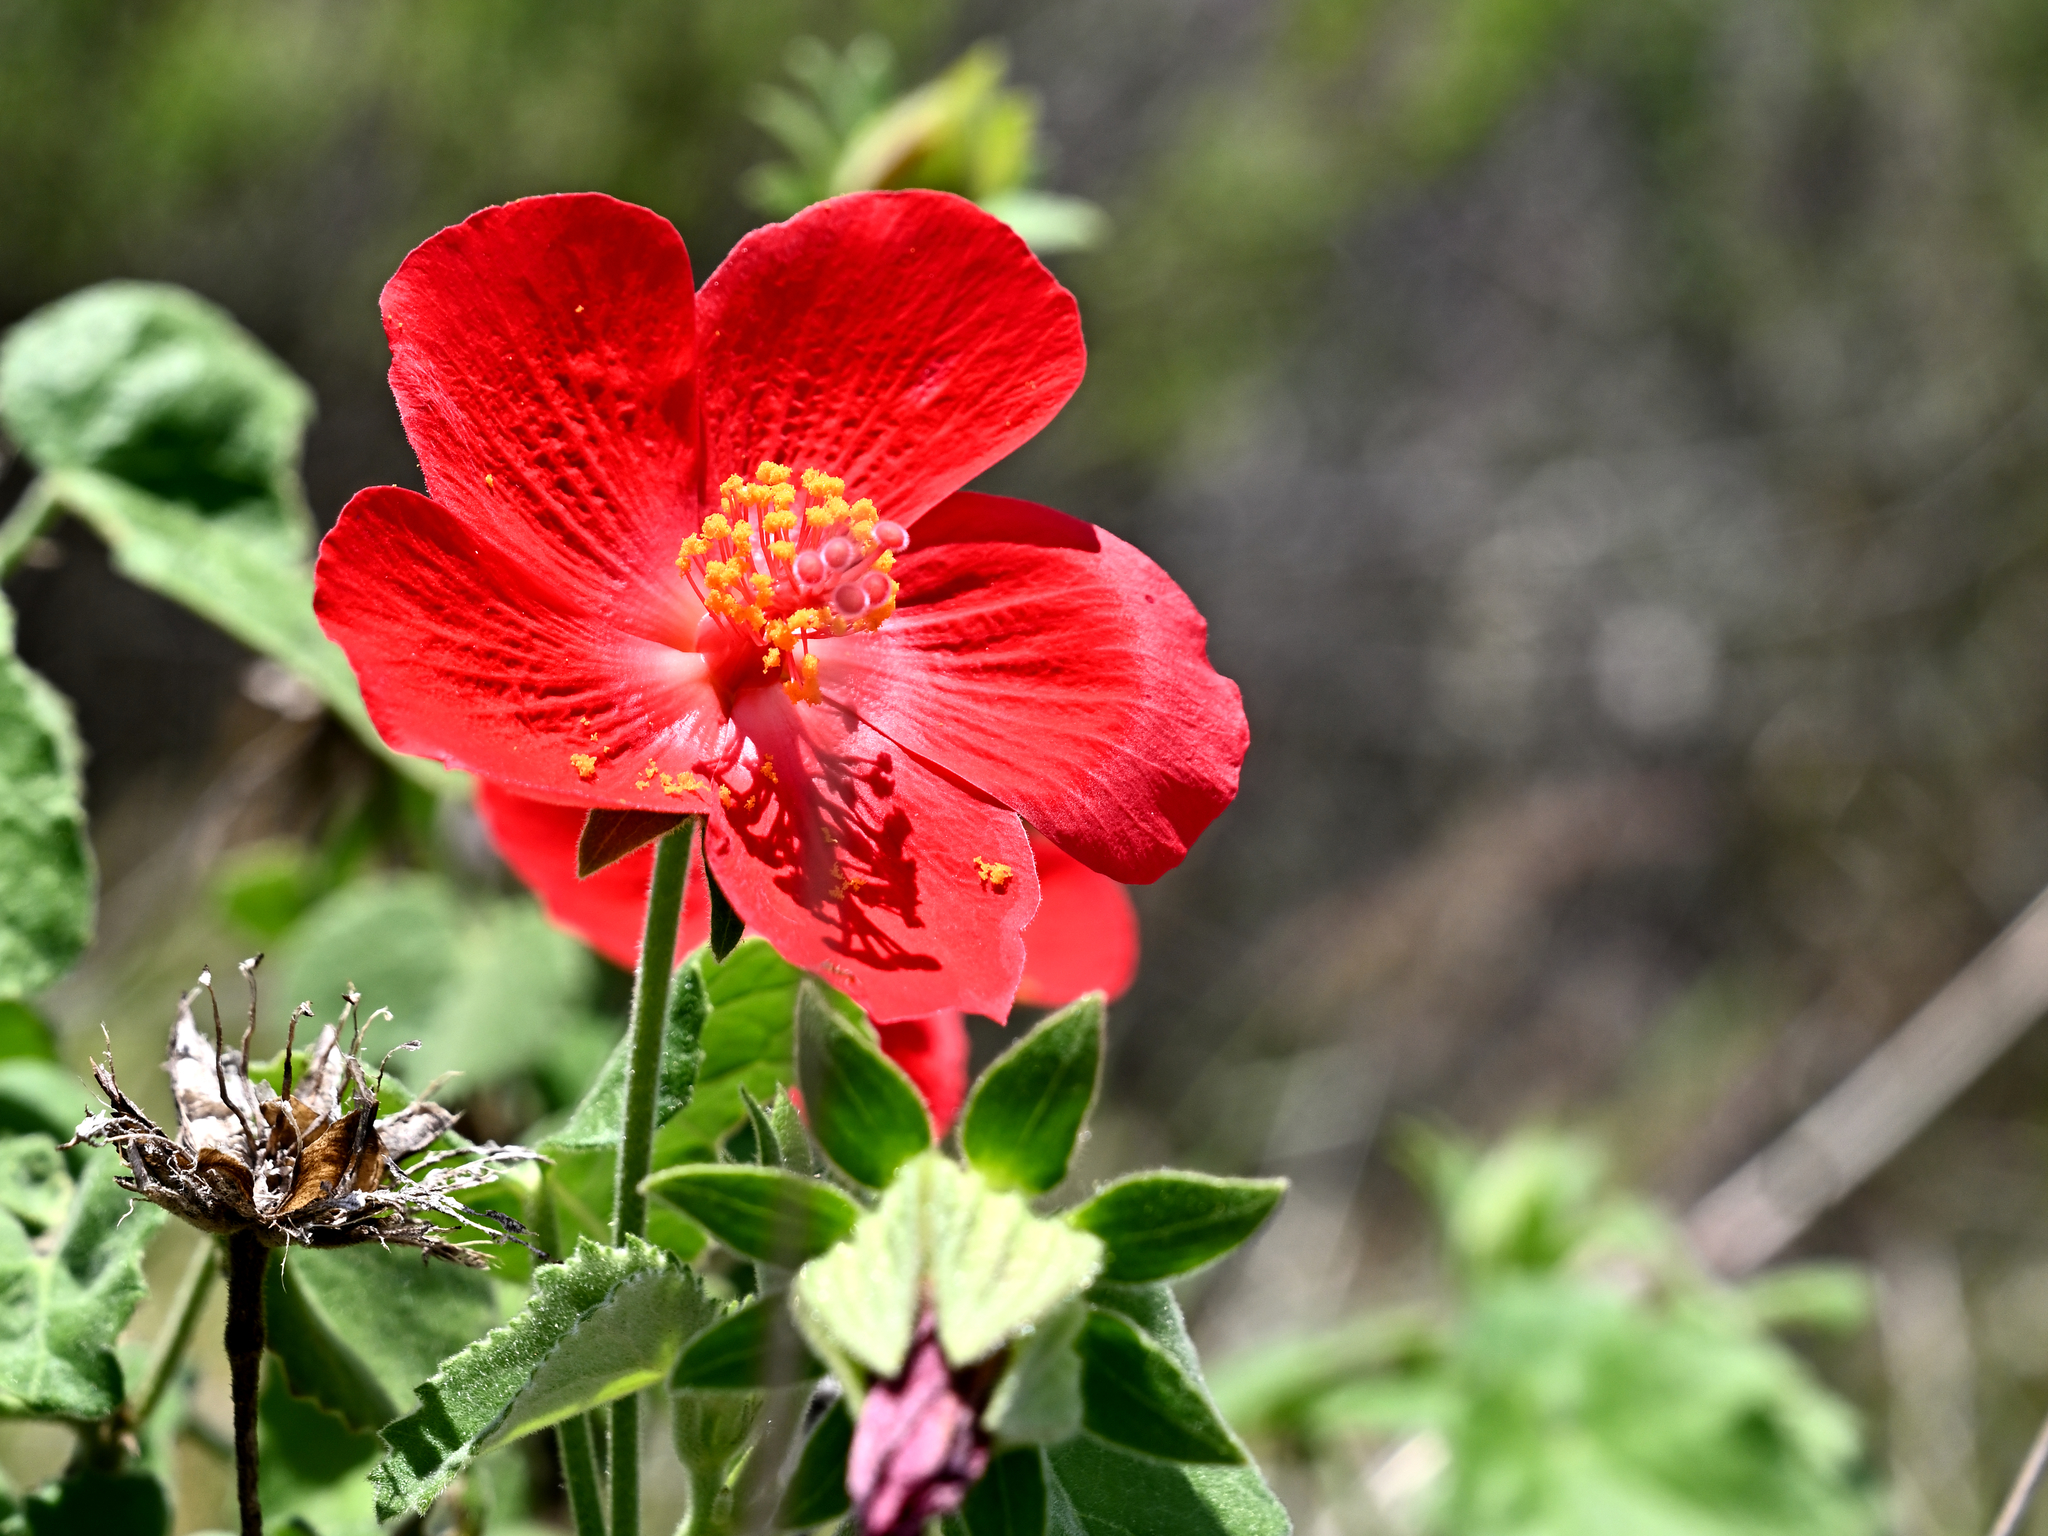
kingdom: Plantae
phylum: Tracheophyta
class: Magnoliopsida
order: Malvales
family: Malvaceae
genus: Hibiscus
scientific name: Hibiscus martianus
